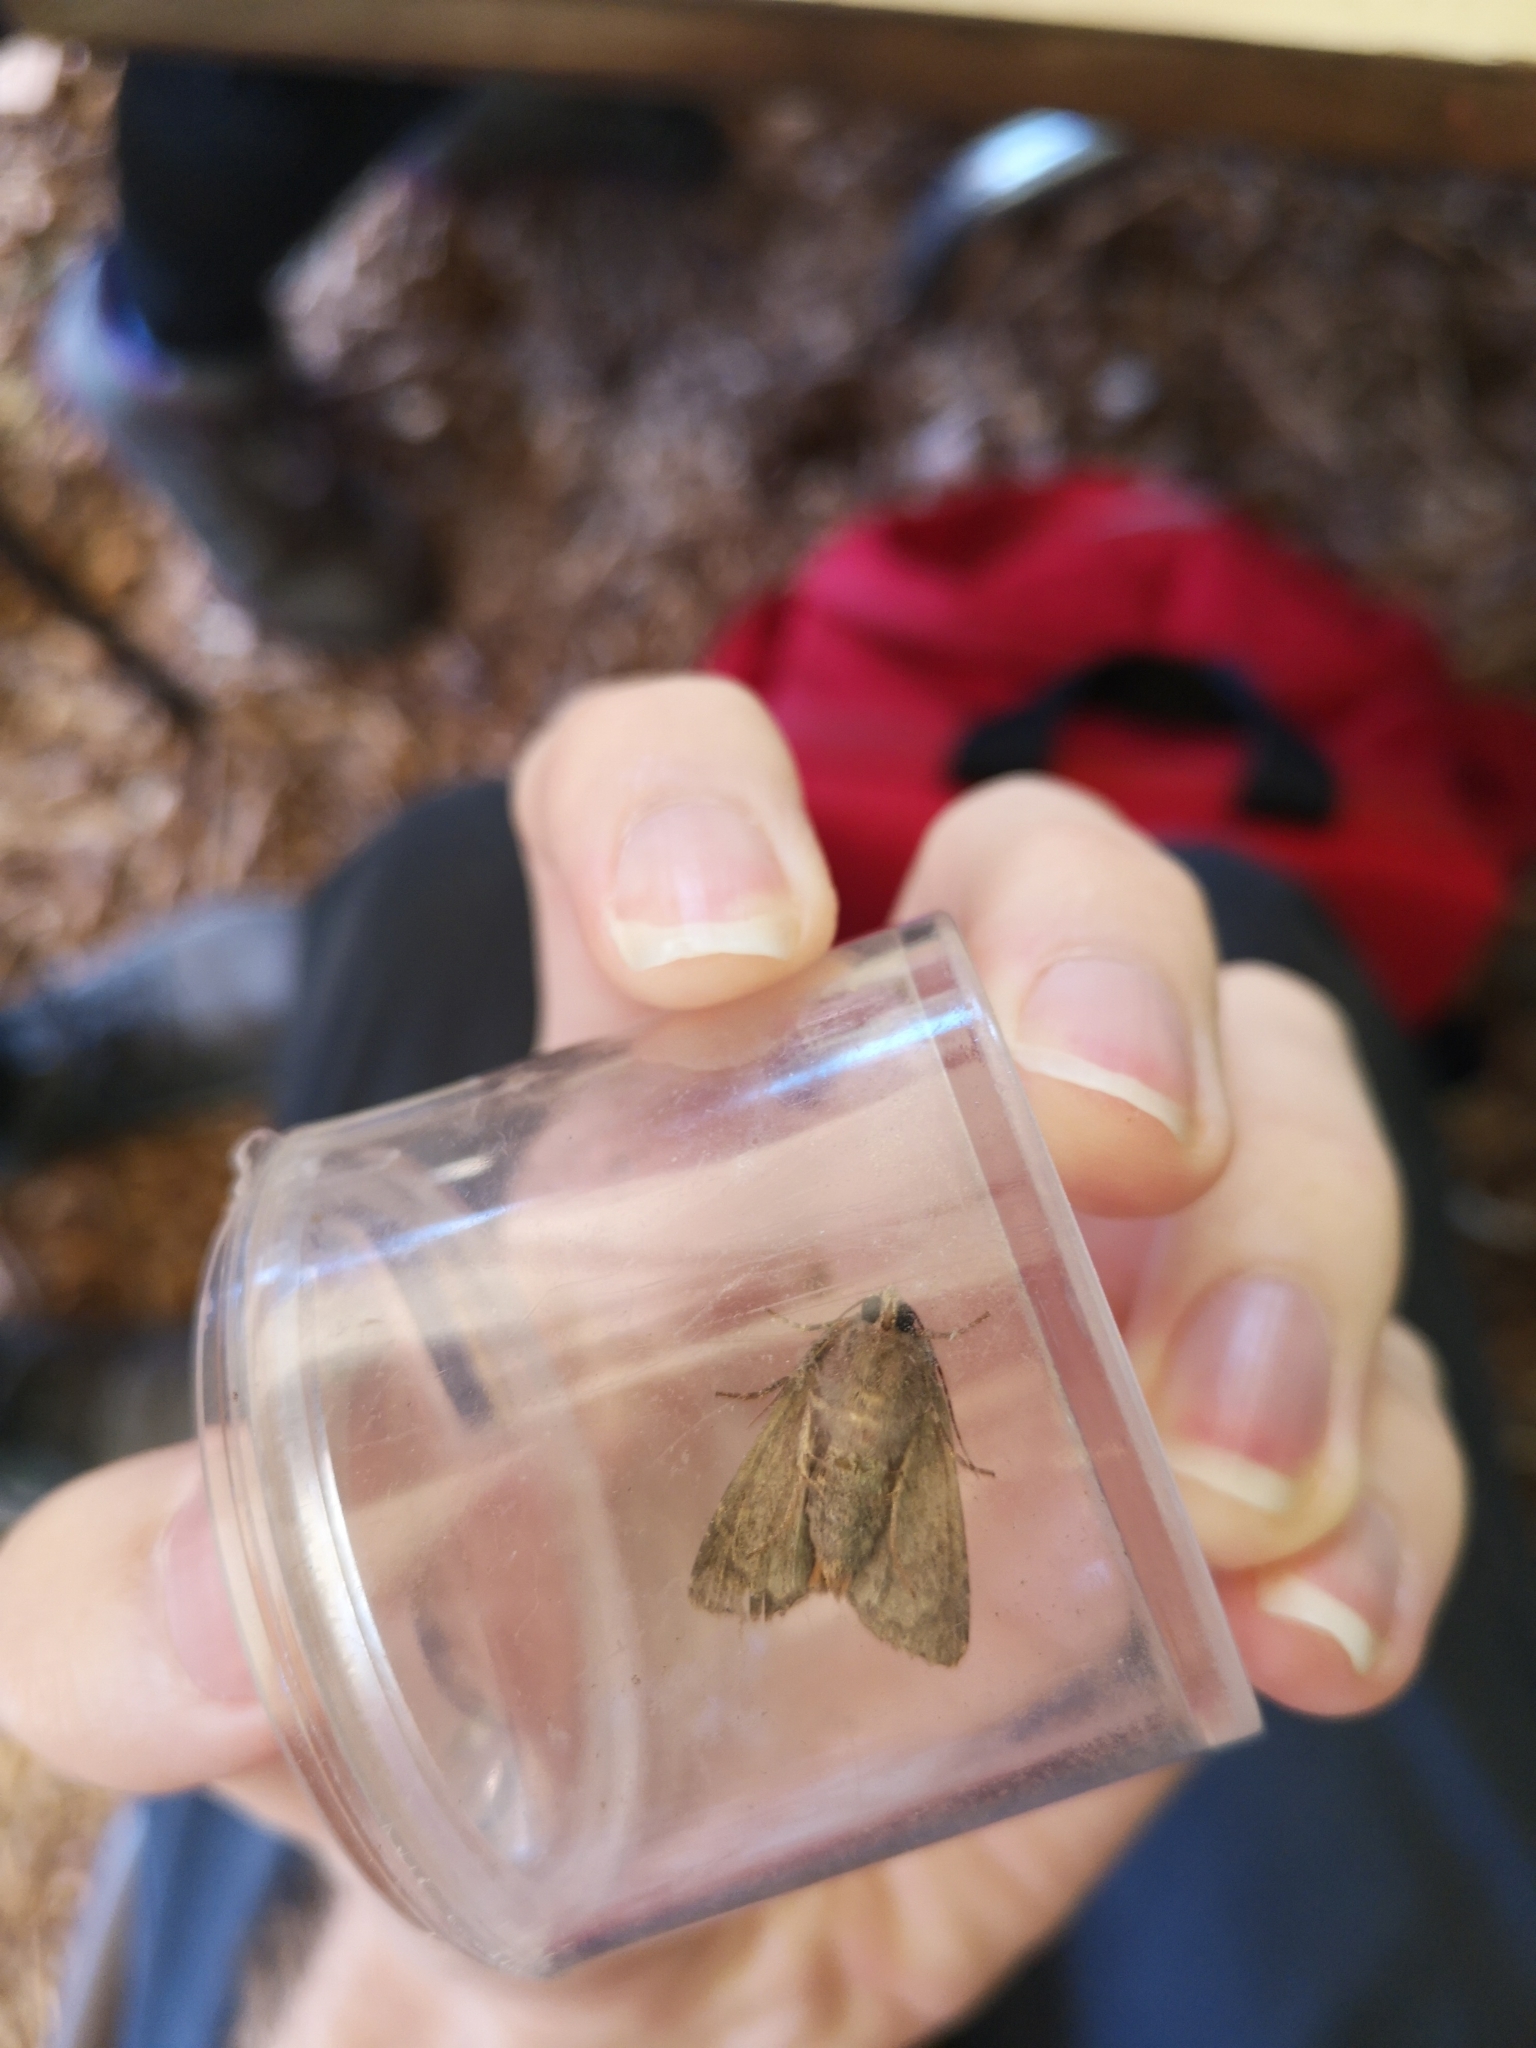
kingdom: Animalia
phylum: Arthropoda
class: Insecta
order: Lepidoptera
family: Noctuidae
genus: Luperina
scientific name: Luperina testacea
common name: Flounced rustic
